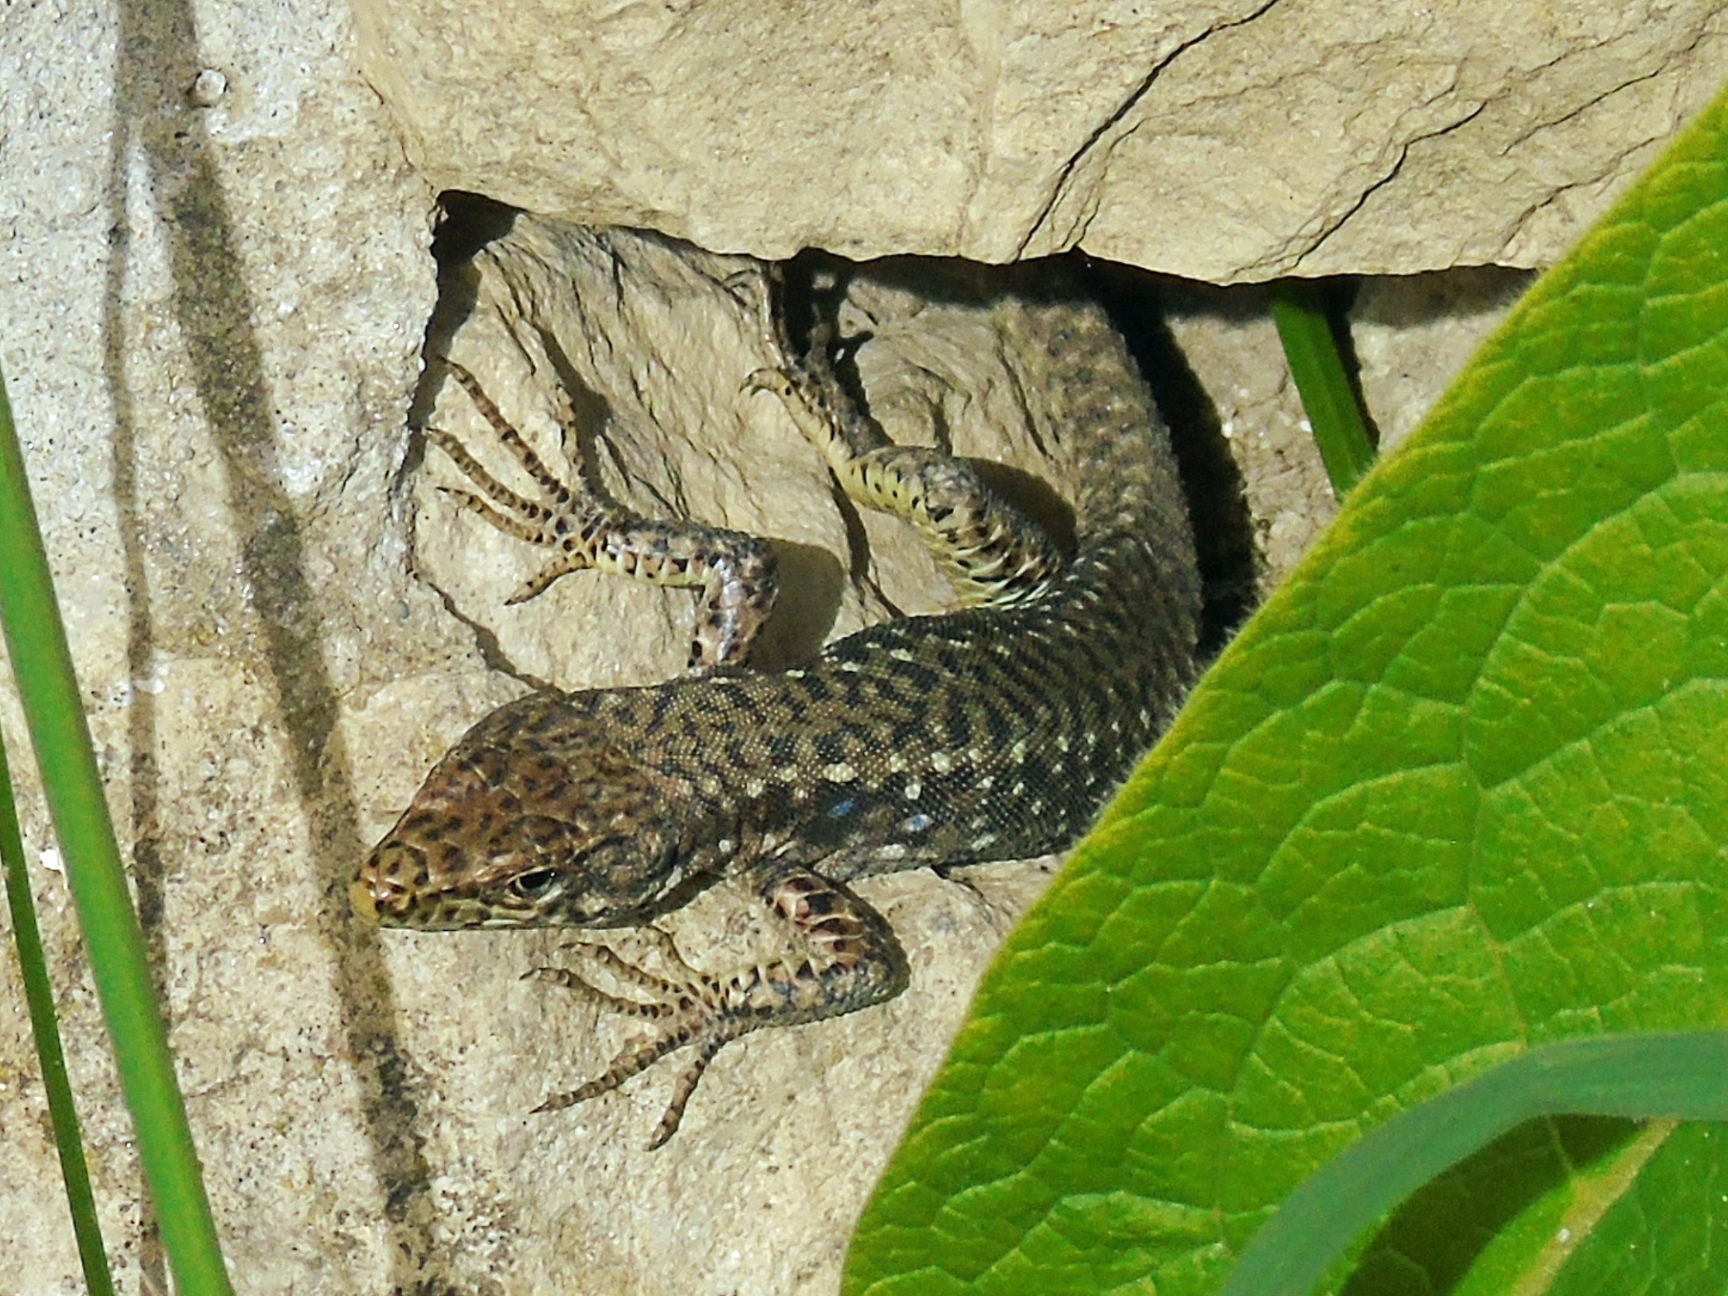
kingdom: Animalia
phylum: Chordata
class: Squamata
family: Lacertidae
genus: Darevskia
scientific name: Darevskia rudis
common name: Spiny-tailed lizard
